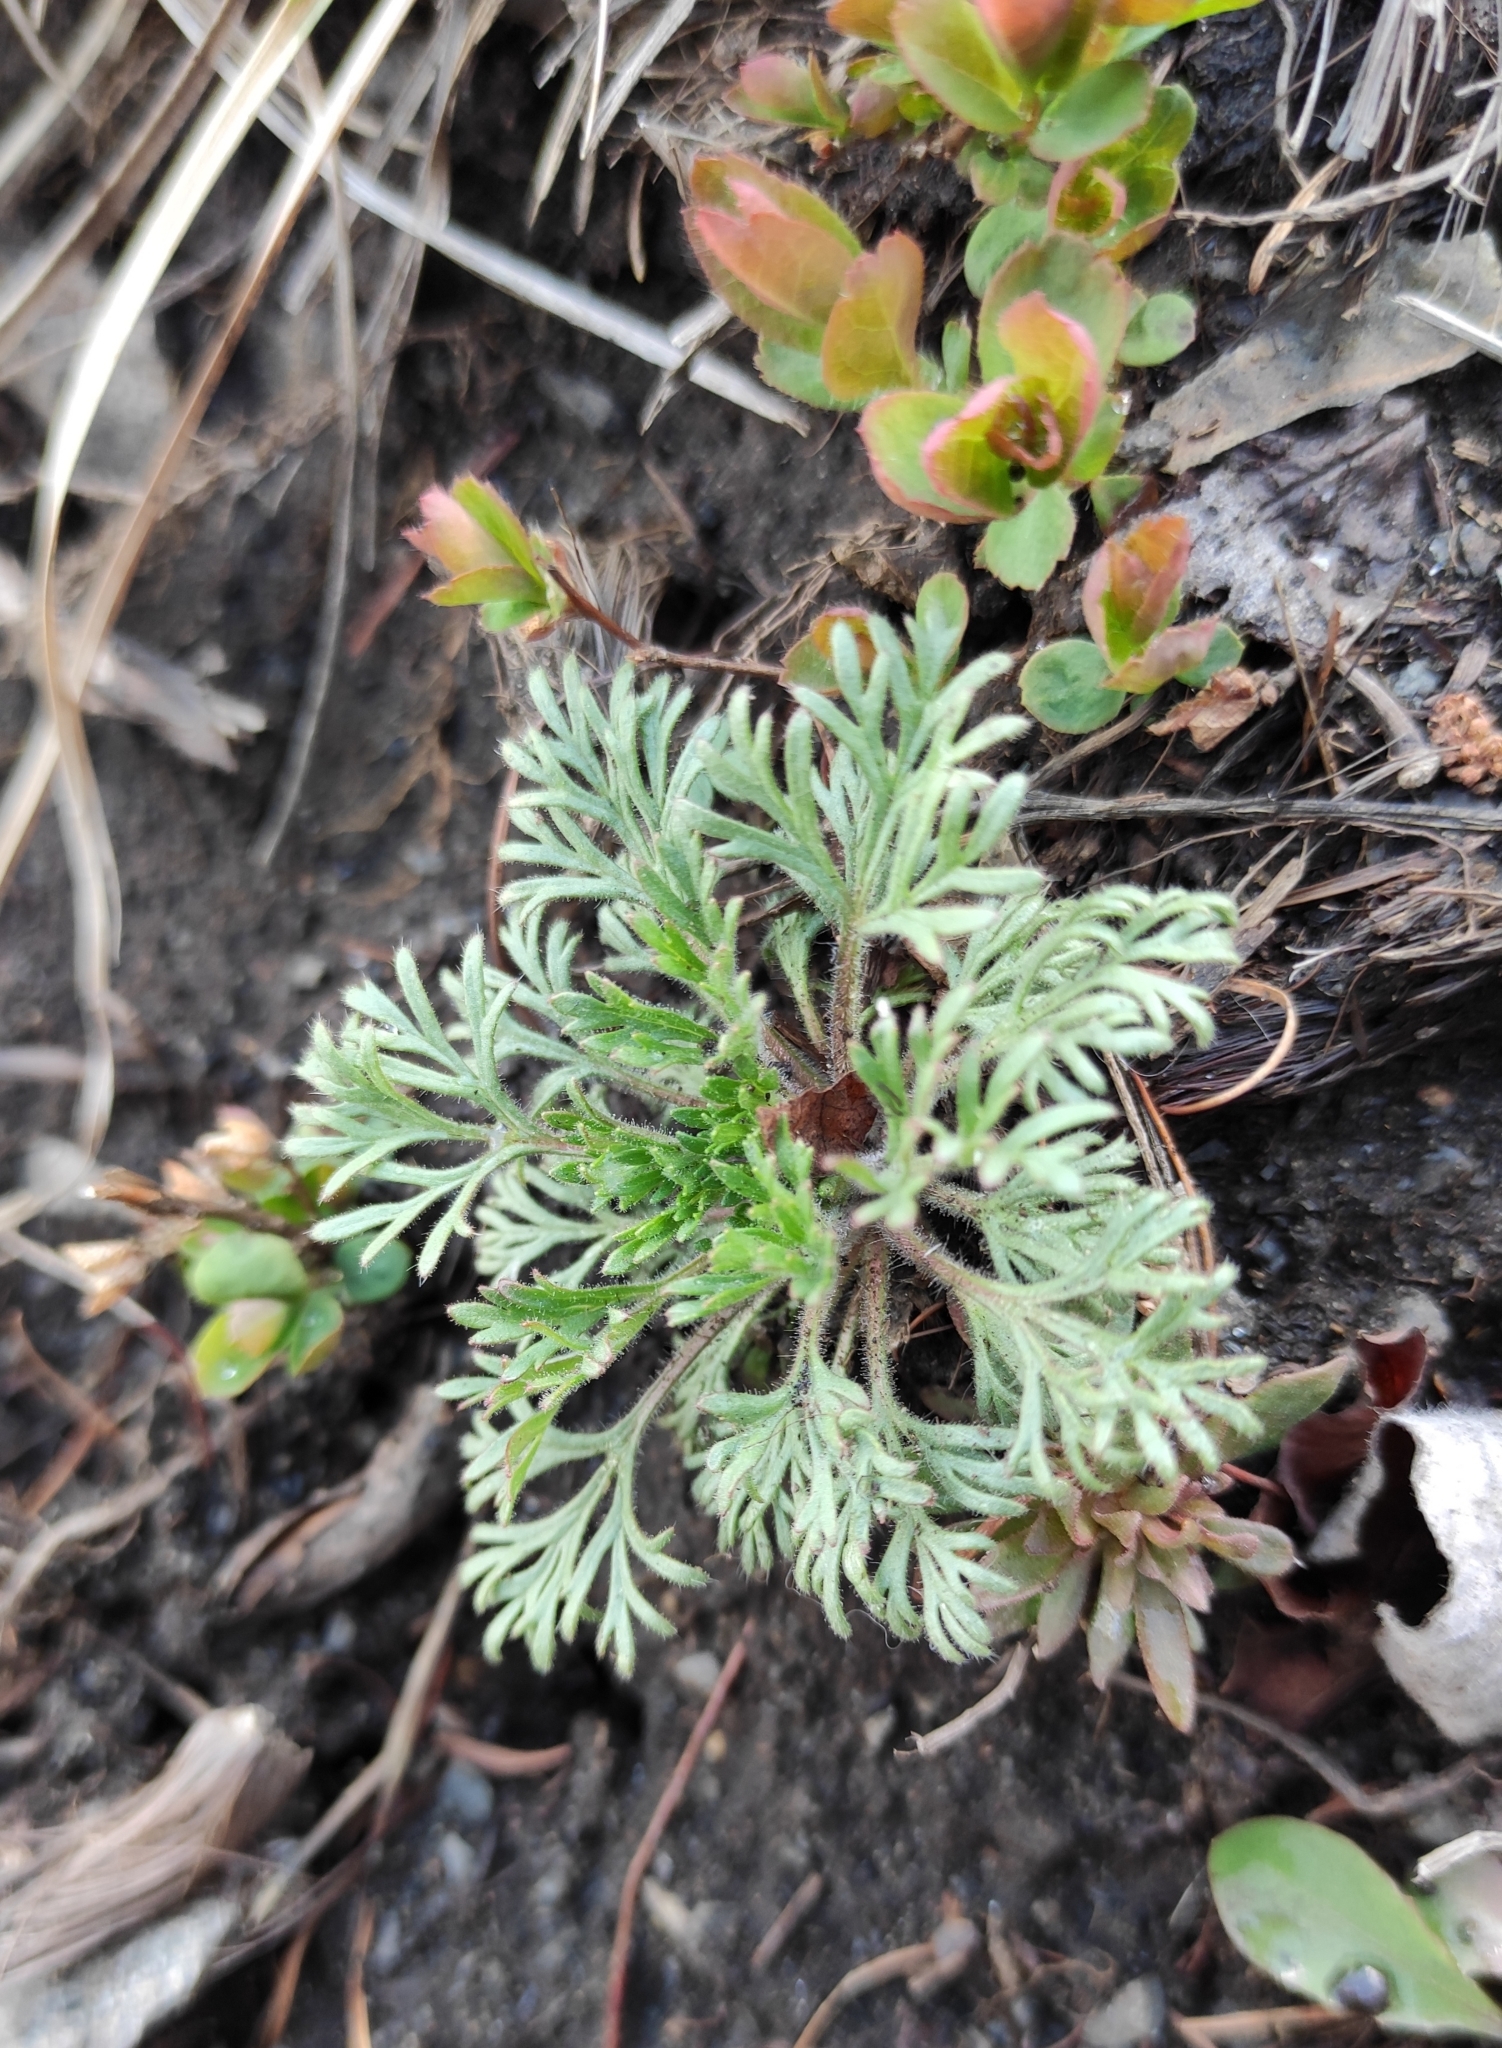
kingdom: Plantae
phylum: Tracheophyta
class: Magnoliopsida
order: Rosales
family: Rosaceae
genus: Chamaerhodos
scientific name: Chamaerhodos erecta
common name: American chamaerhodos
